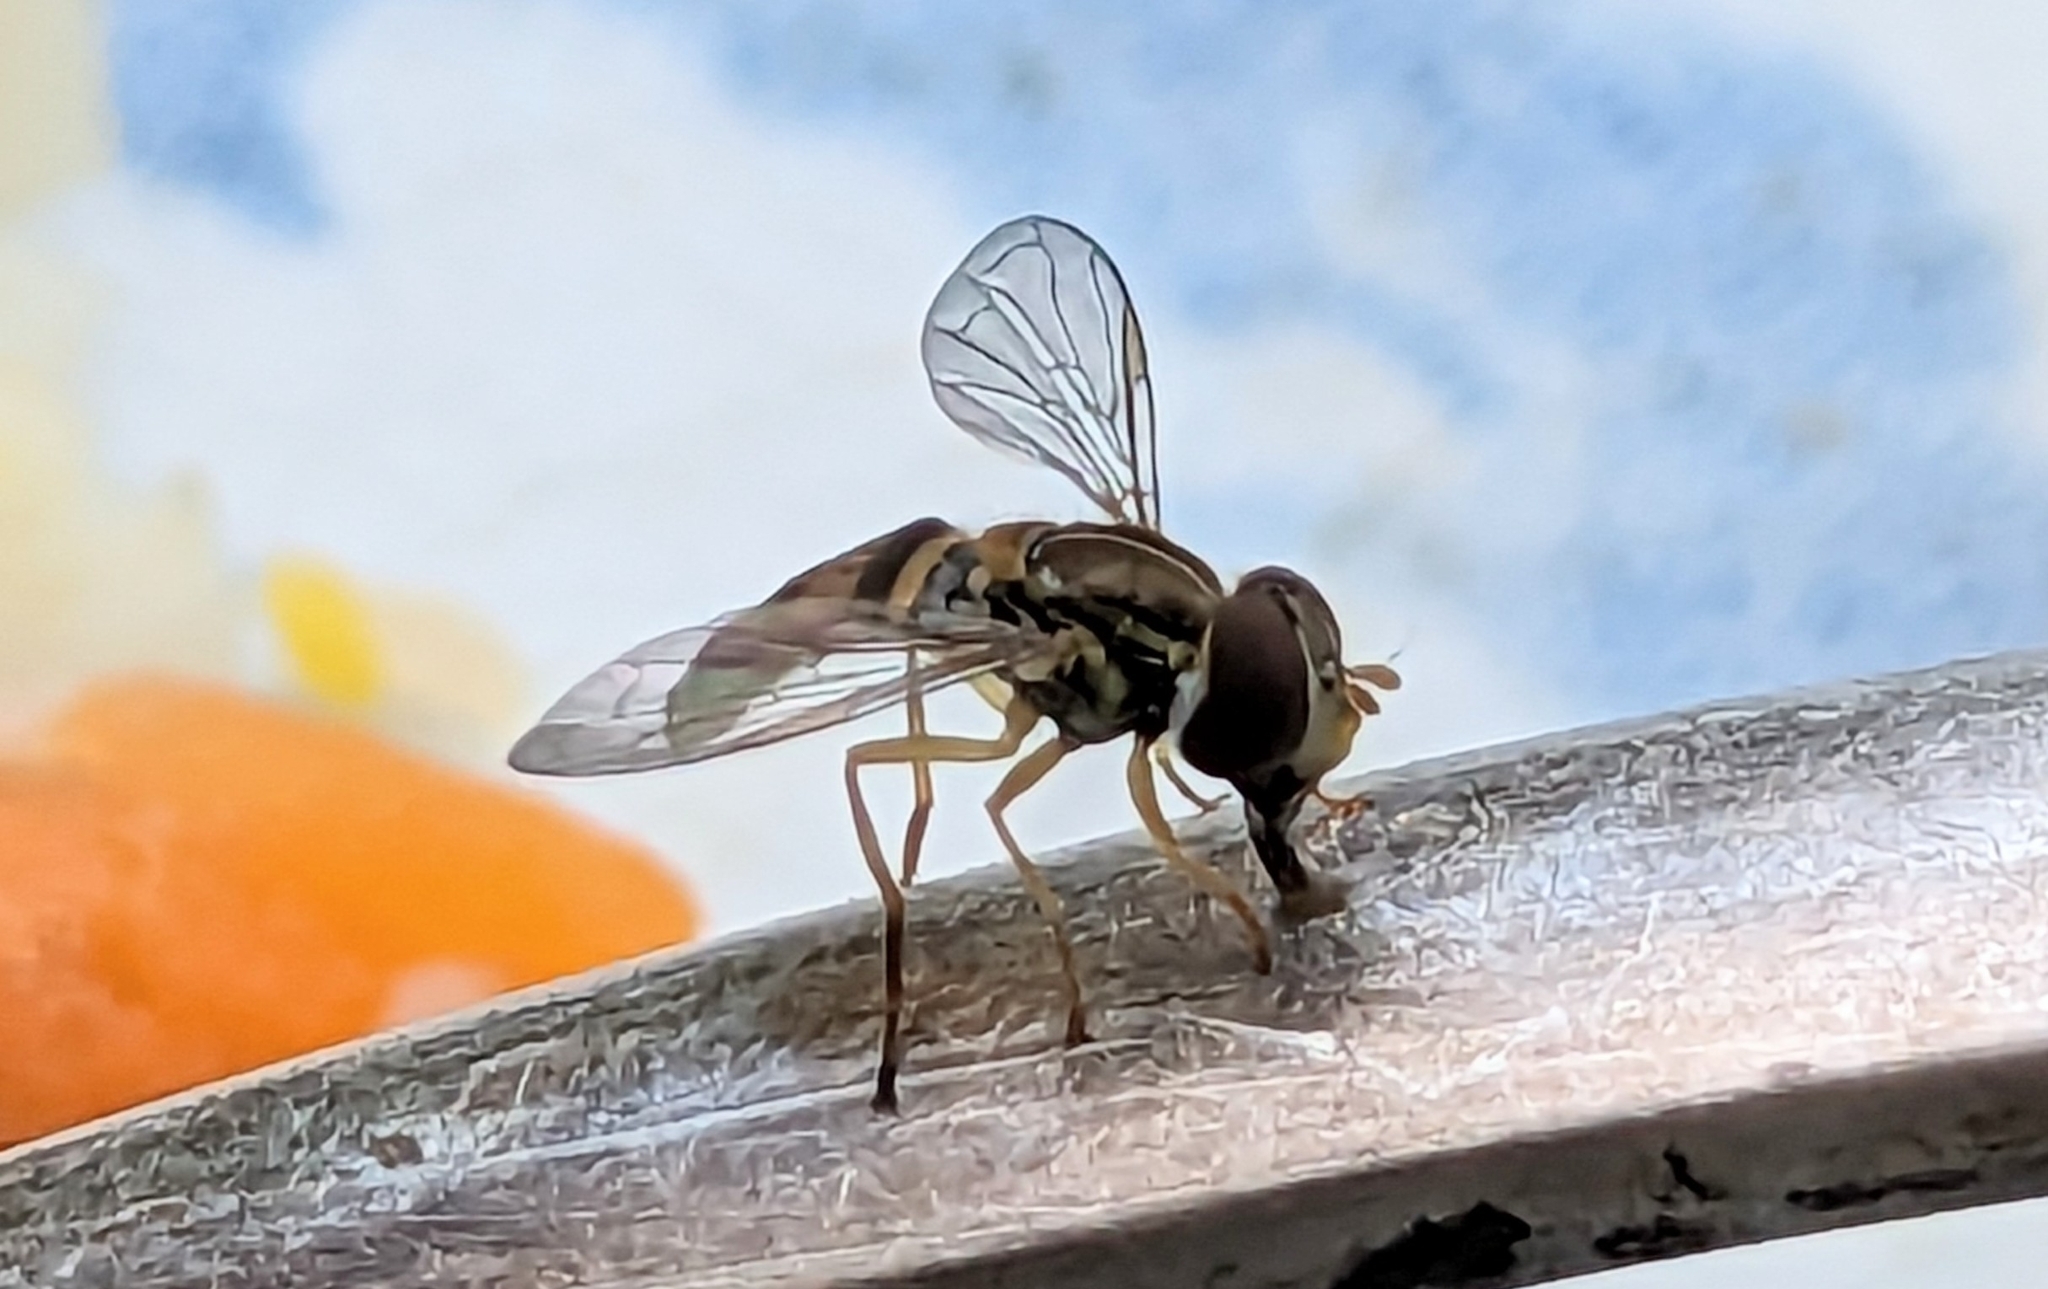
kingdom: Animalia
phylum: Arthropoda
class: Insecta
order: Diptera
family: Syrphidae
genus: Toxomerus
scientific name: Toxomerus marginatus
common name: Syrphid fly
